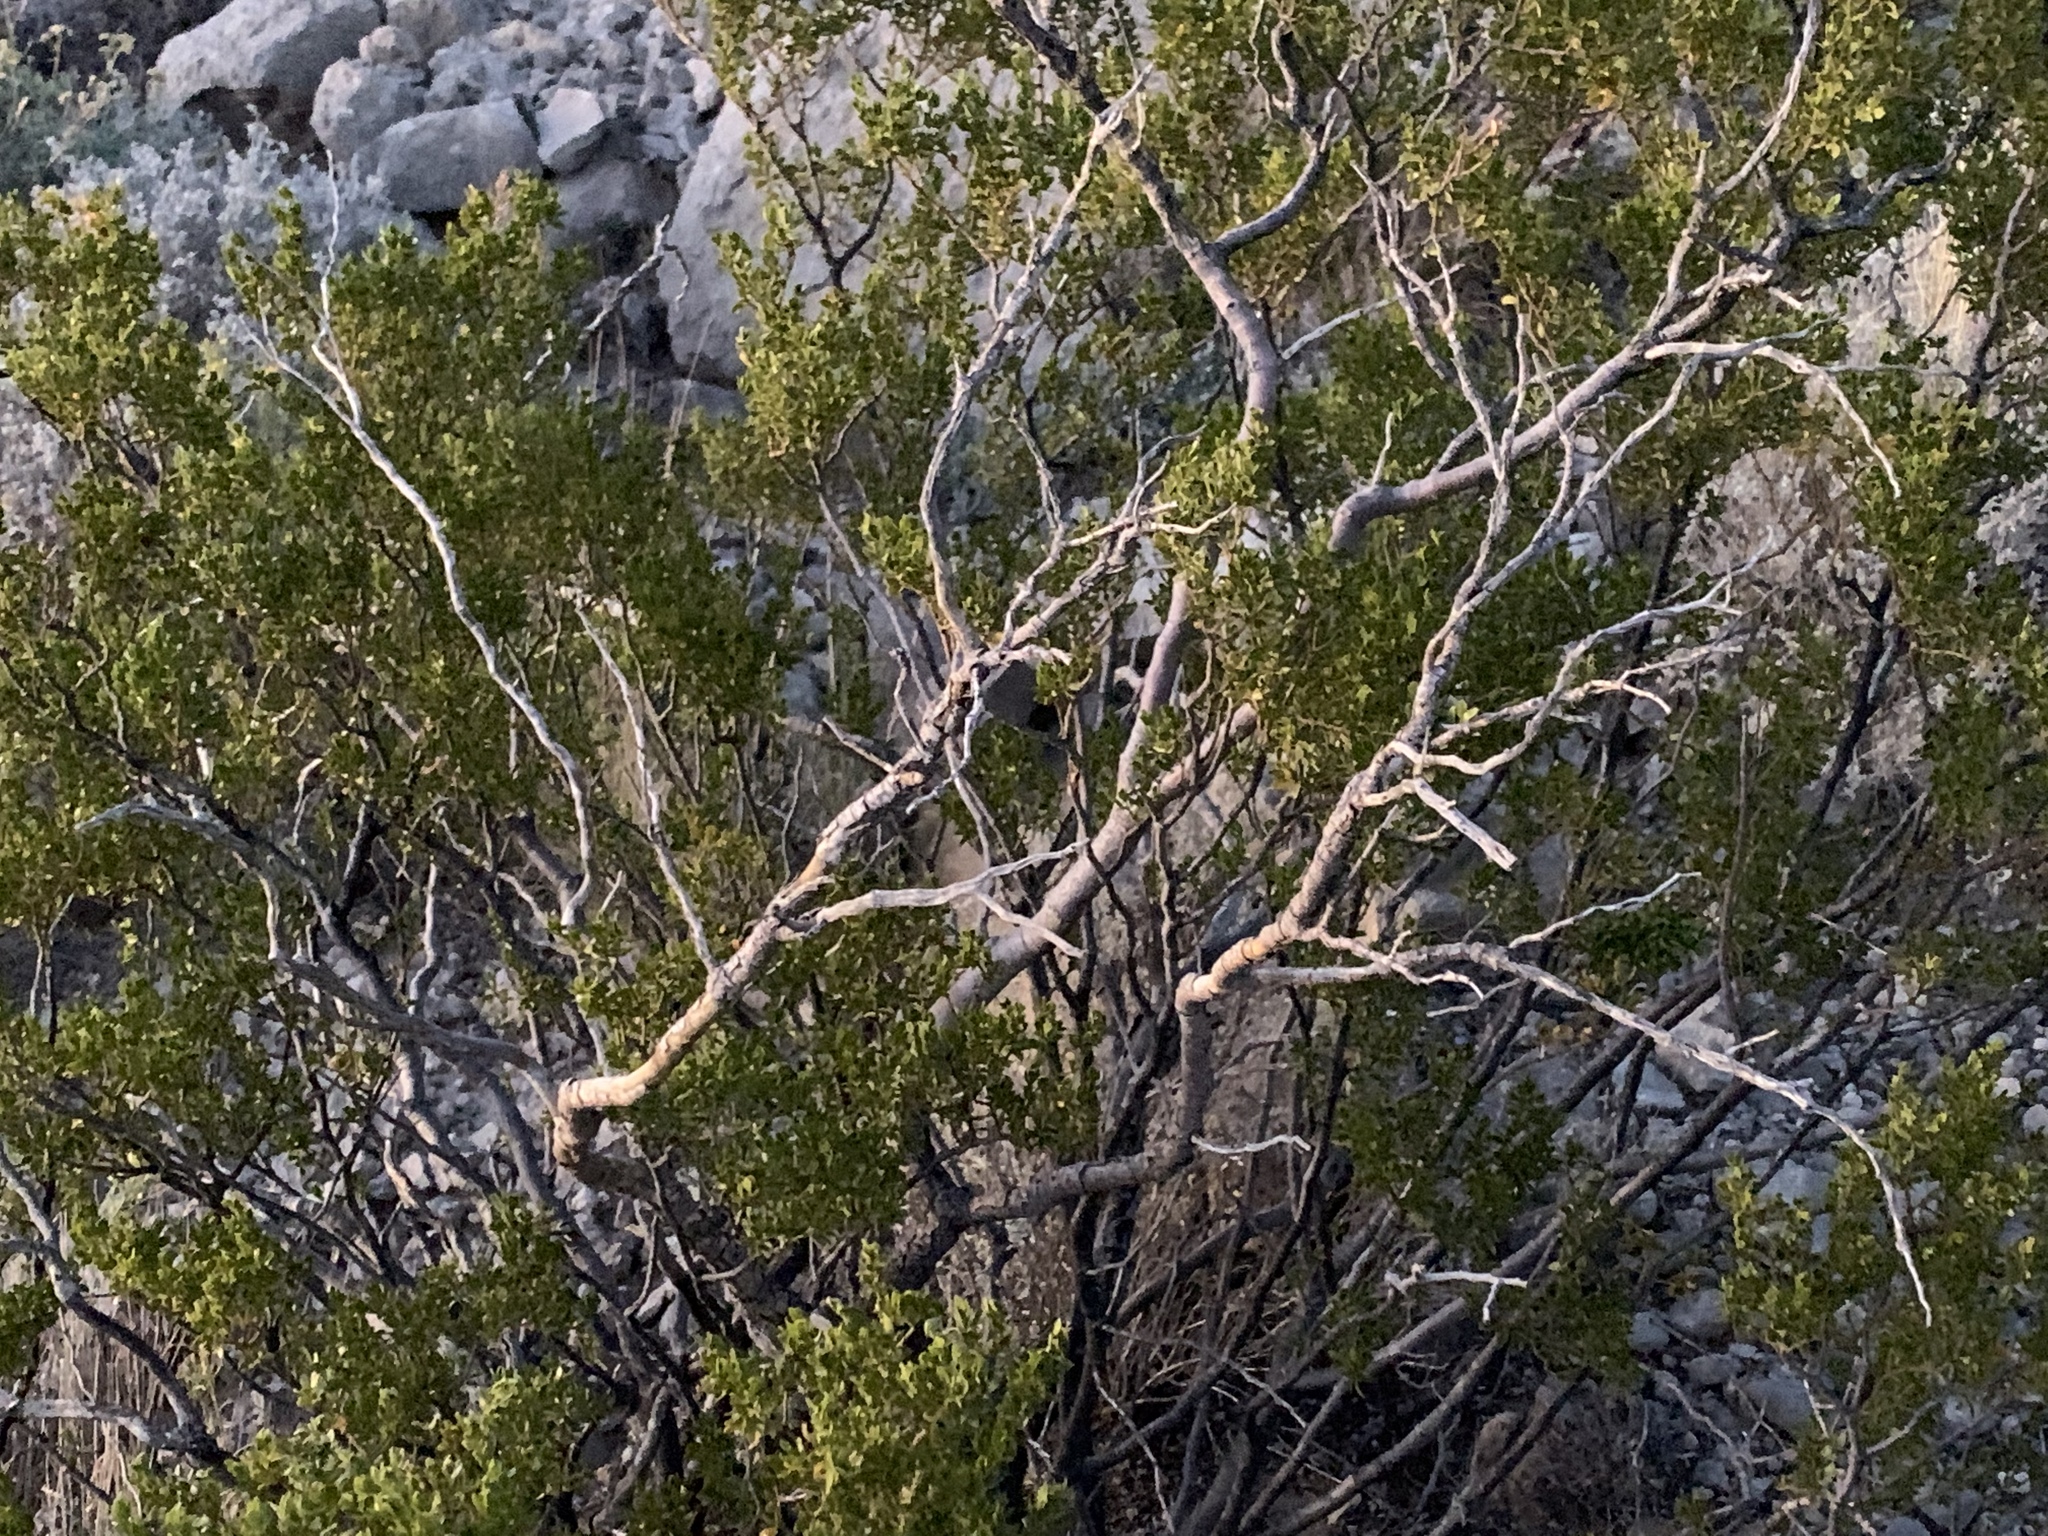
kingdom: Plantae
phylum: Tracheophyta
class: Magnoliopsida
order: Zygophyllales
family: Zygophyllaceae
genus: Larrea
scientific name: Larrea tridentata
